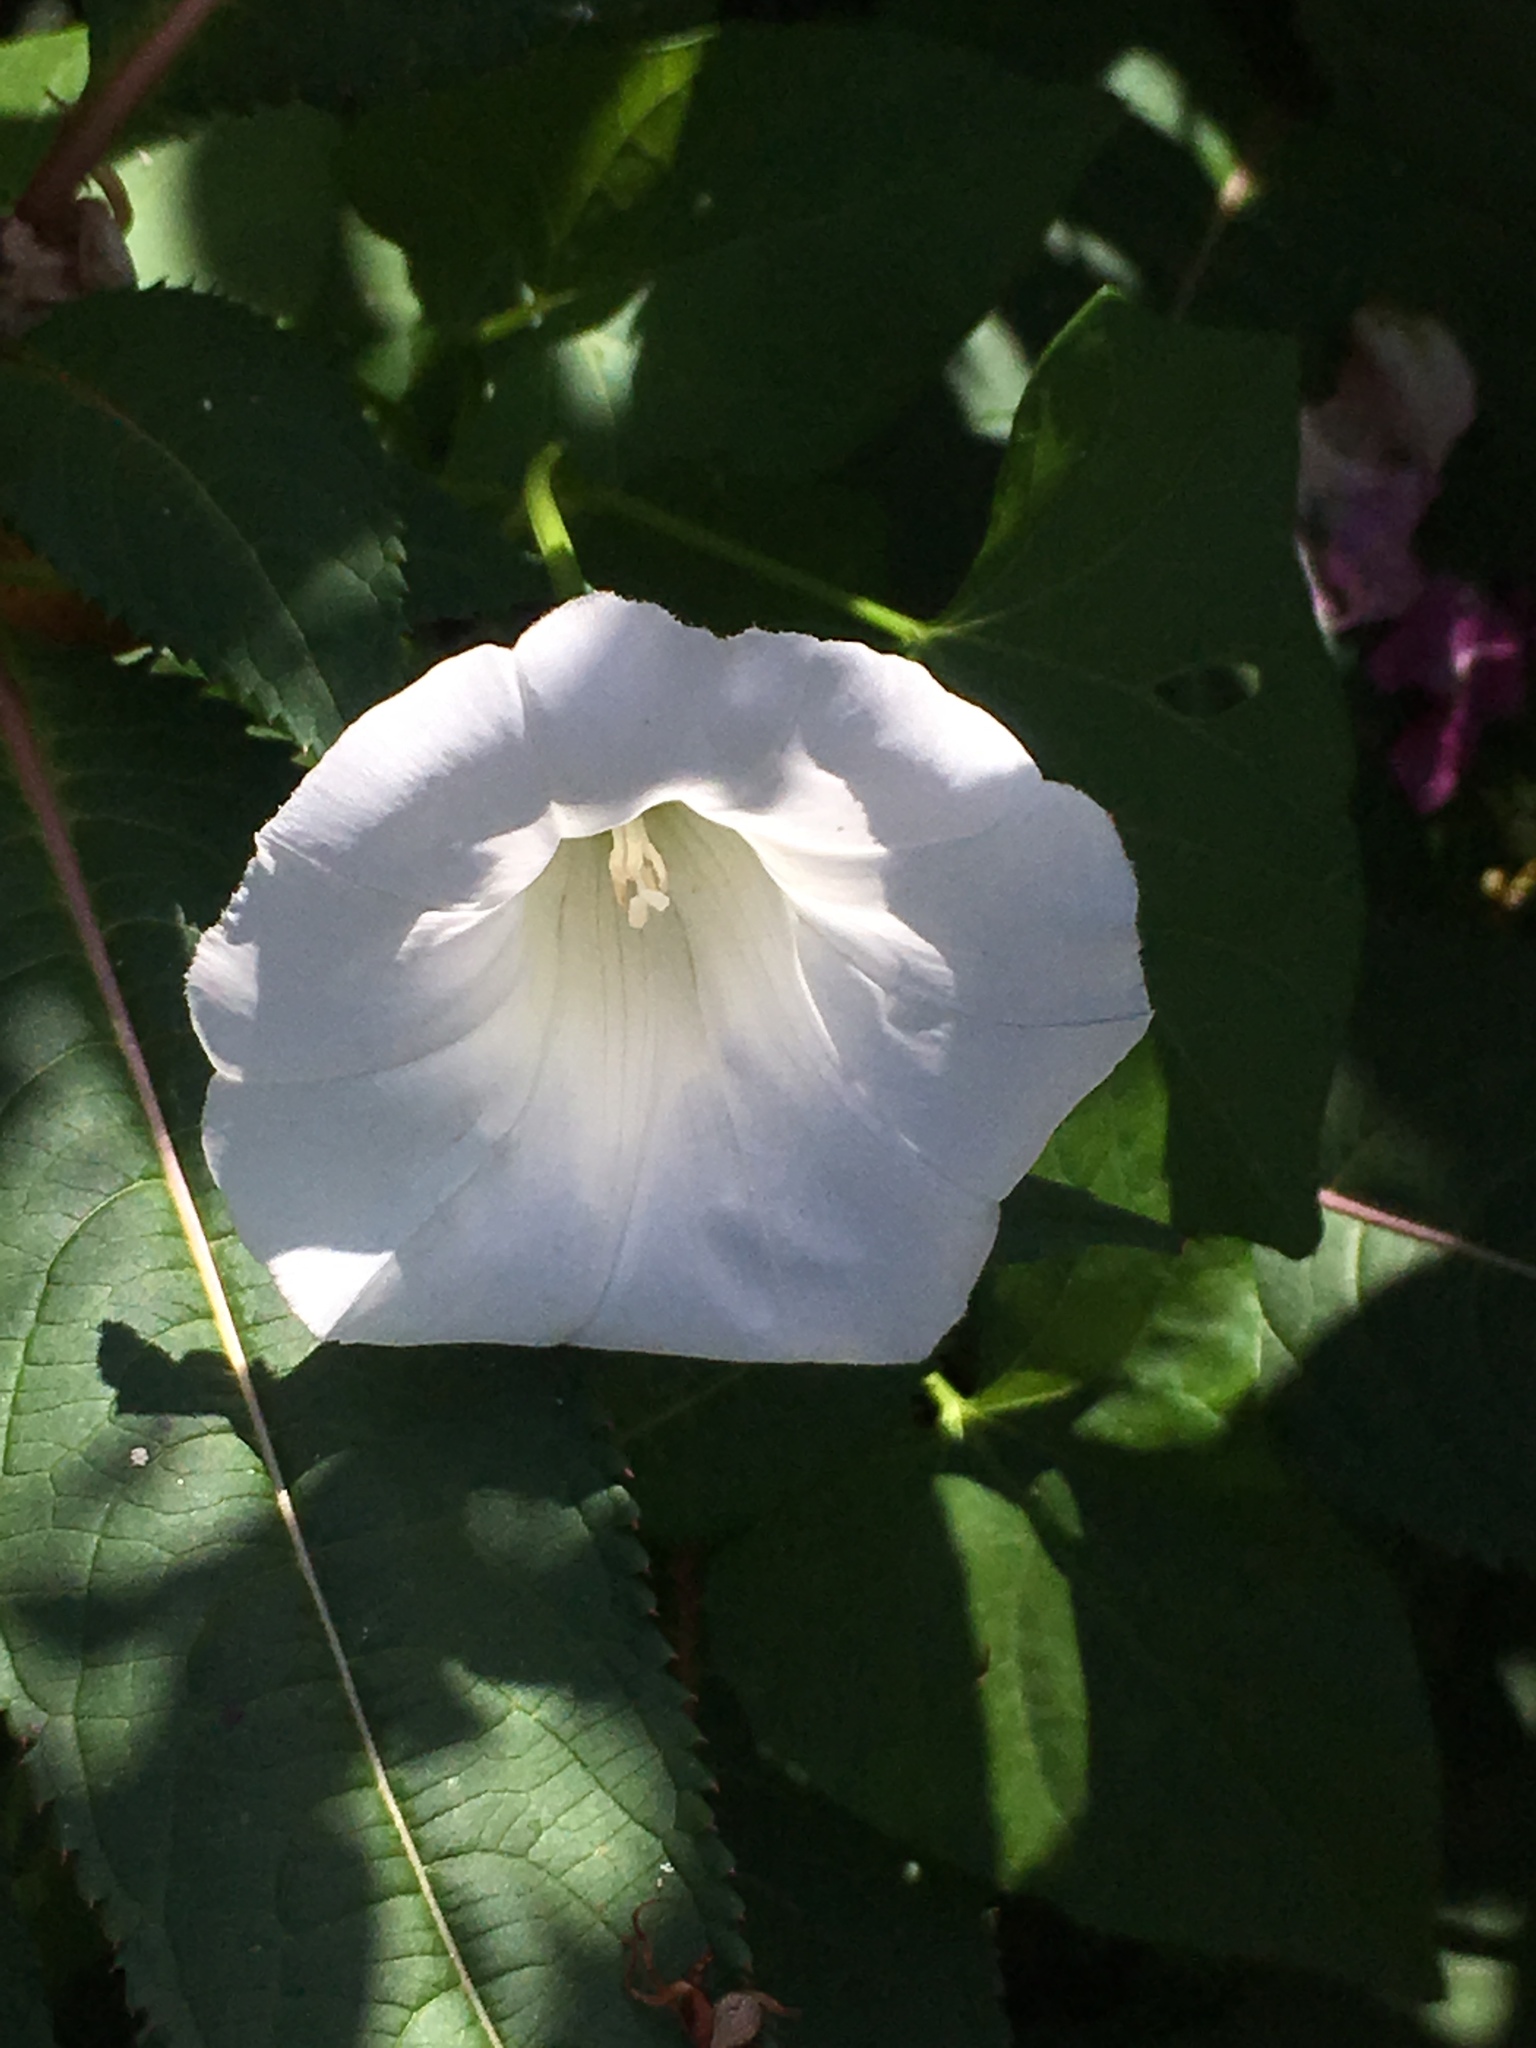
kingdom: Plantae
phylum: Tracheophyta
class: Magnoliopsida
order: Solanales
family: Convolvulaceae
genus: Calystegia
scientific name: Calystegia sepium
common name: Hedge bindweed
